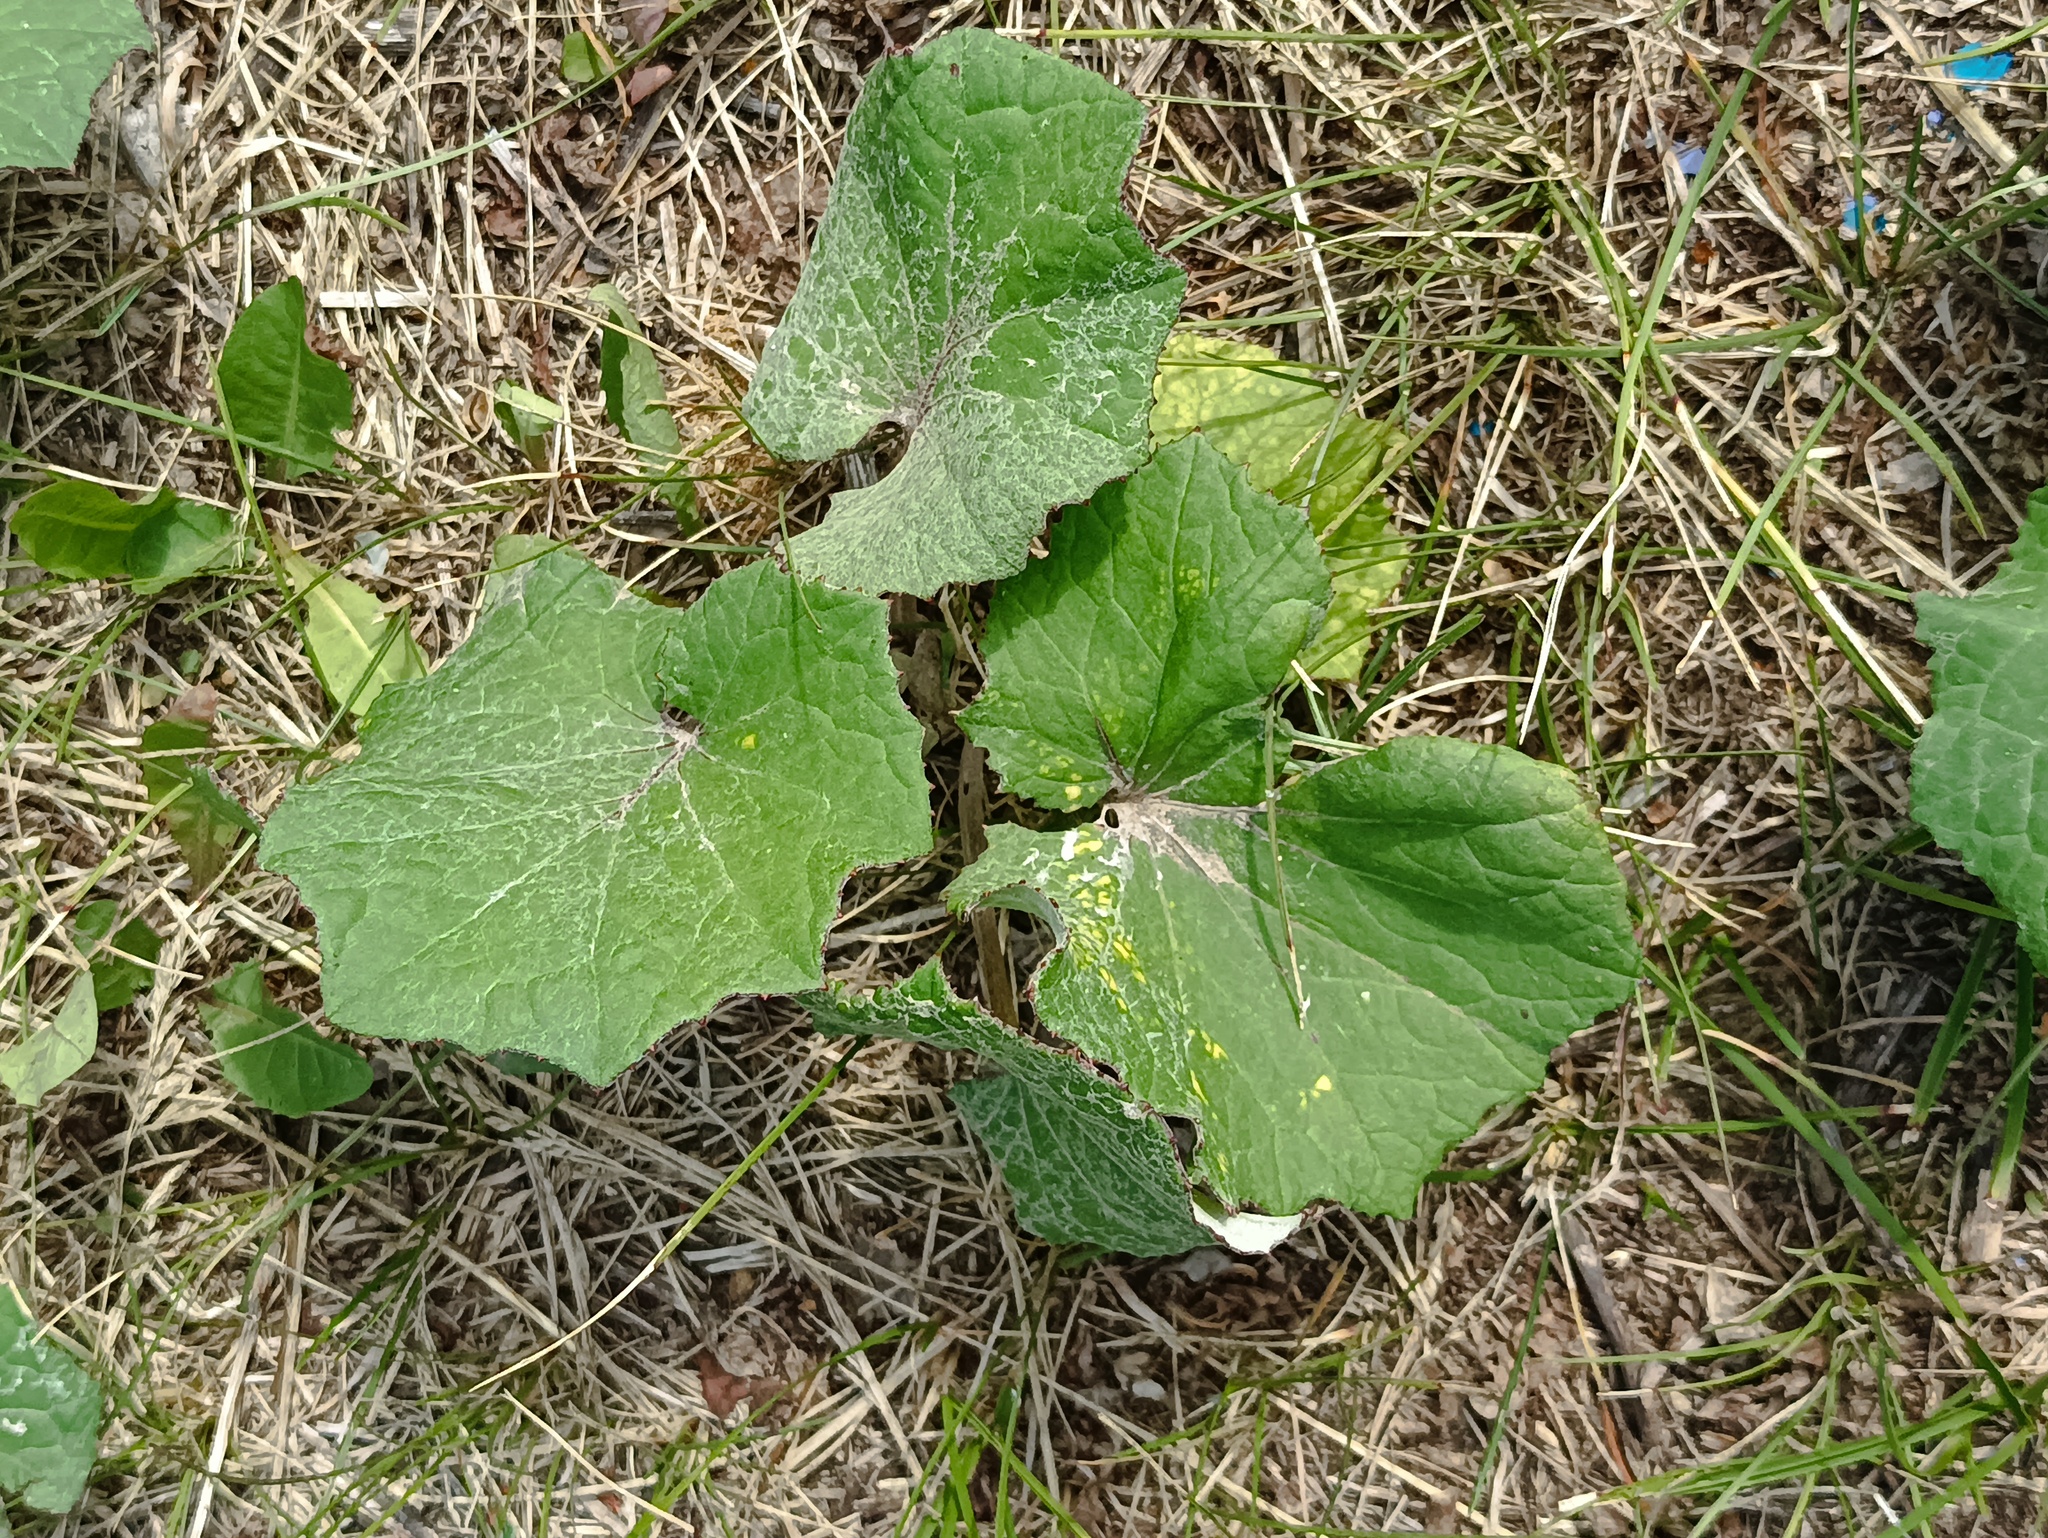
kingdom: Plantae
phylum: Tracheophyta
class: Magnoliopsida
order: Asterales
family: Asteraceae
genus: Tussilago
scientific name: Tussilago farfara
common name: Coltsfoot
